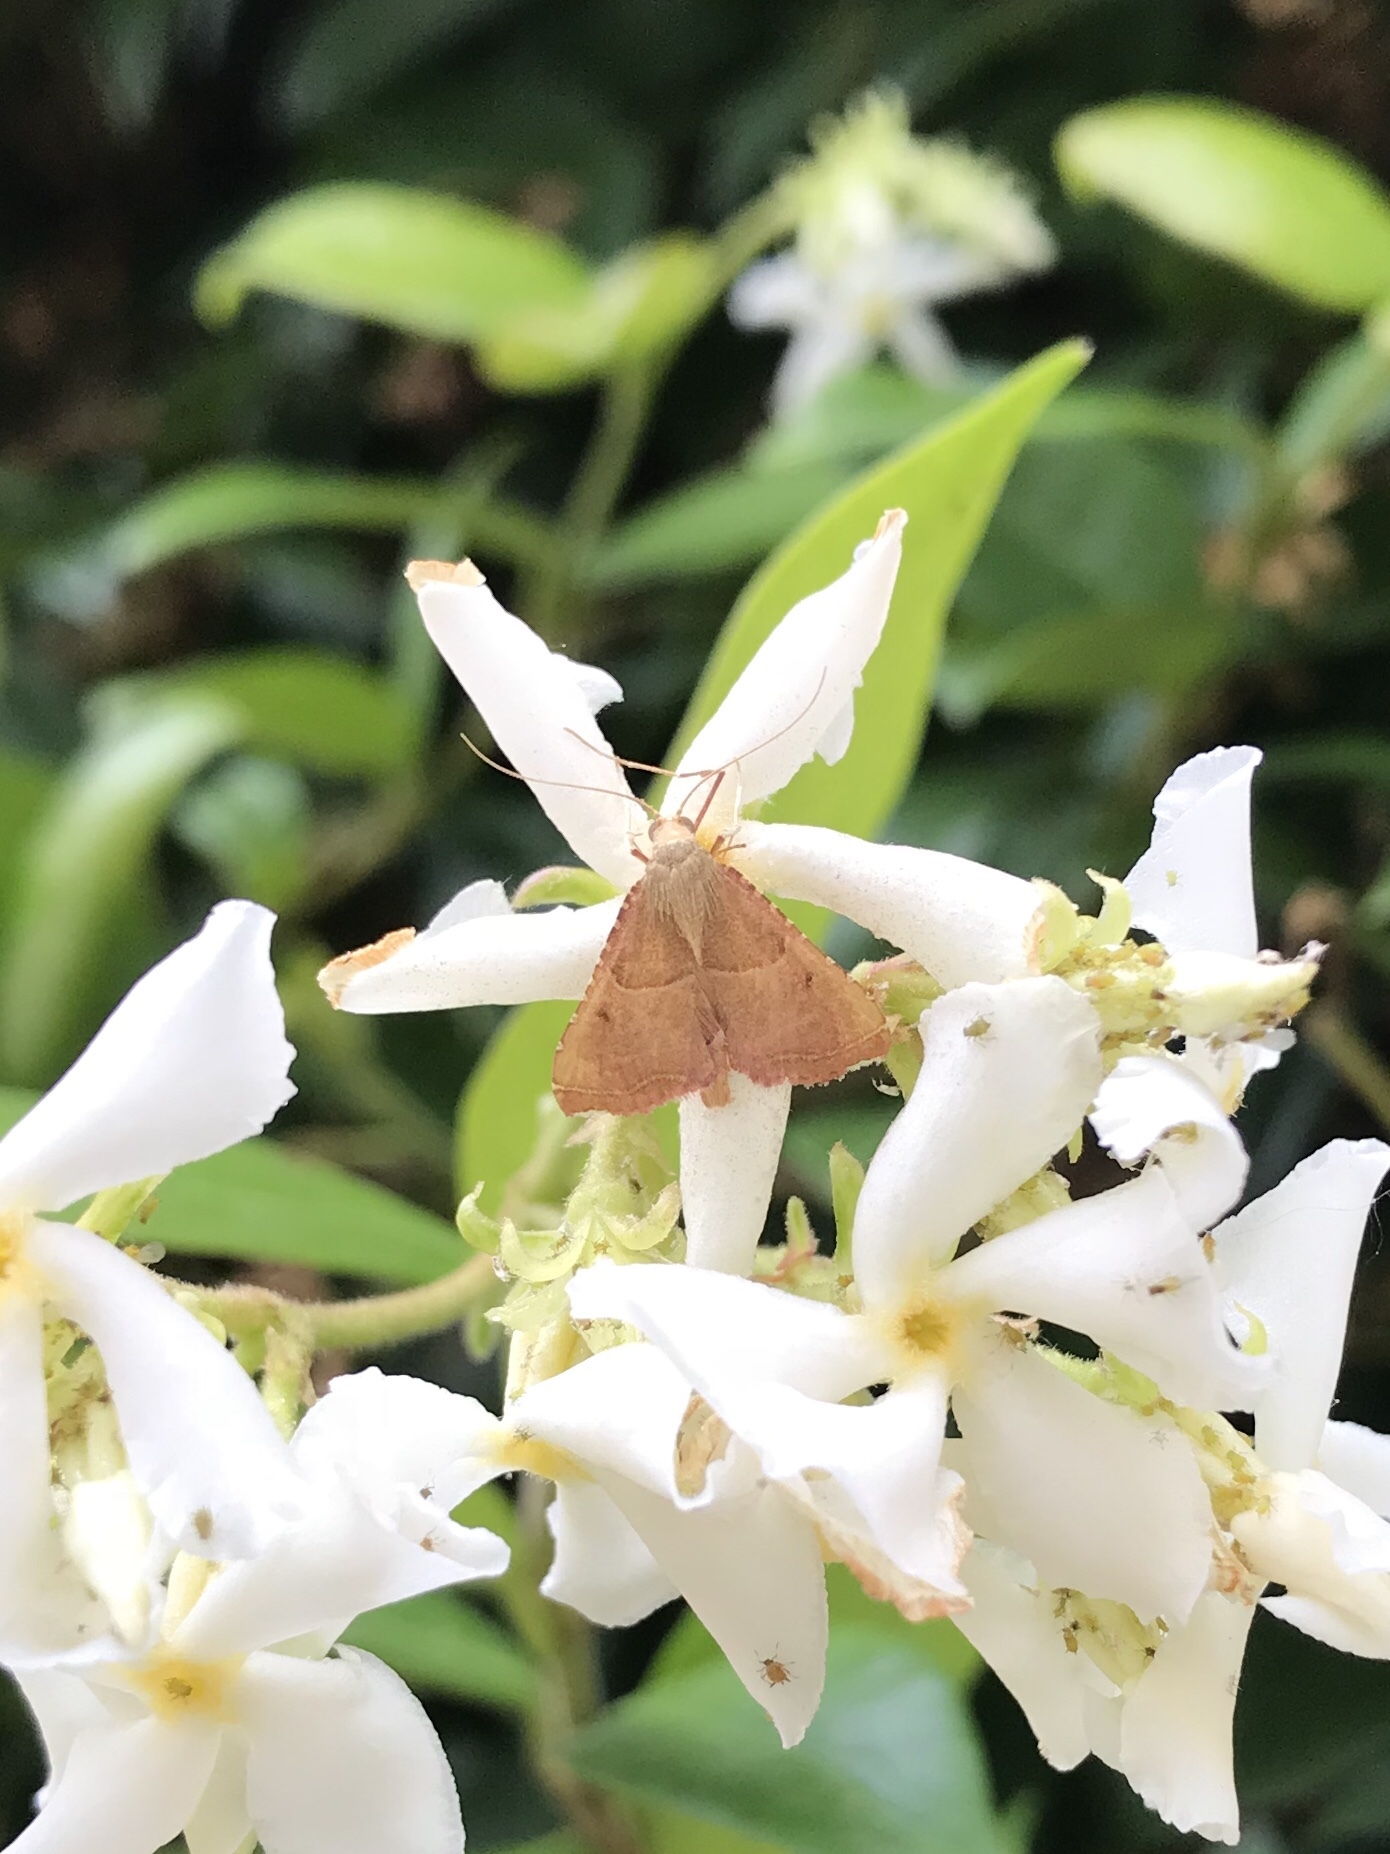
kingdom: Animalia
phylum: Arthropoda
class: Insecta
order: Lepidoptera
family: Pyralidae
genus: Endotricha
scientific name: Endotricha flammealis
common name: Rosy tabby
